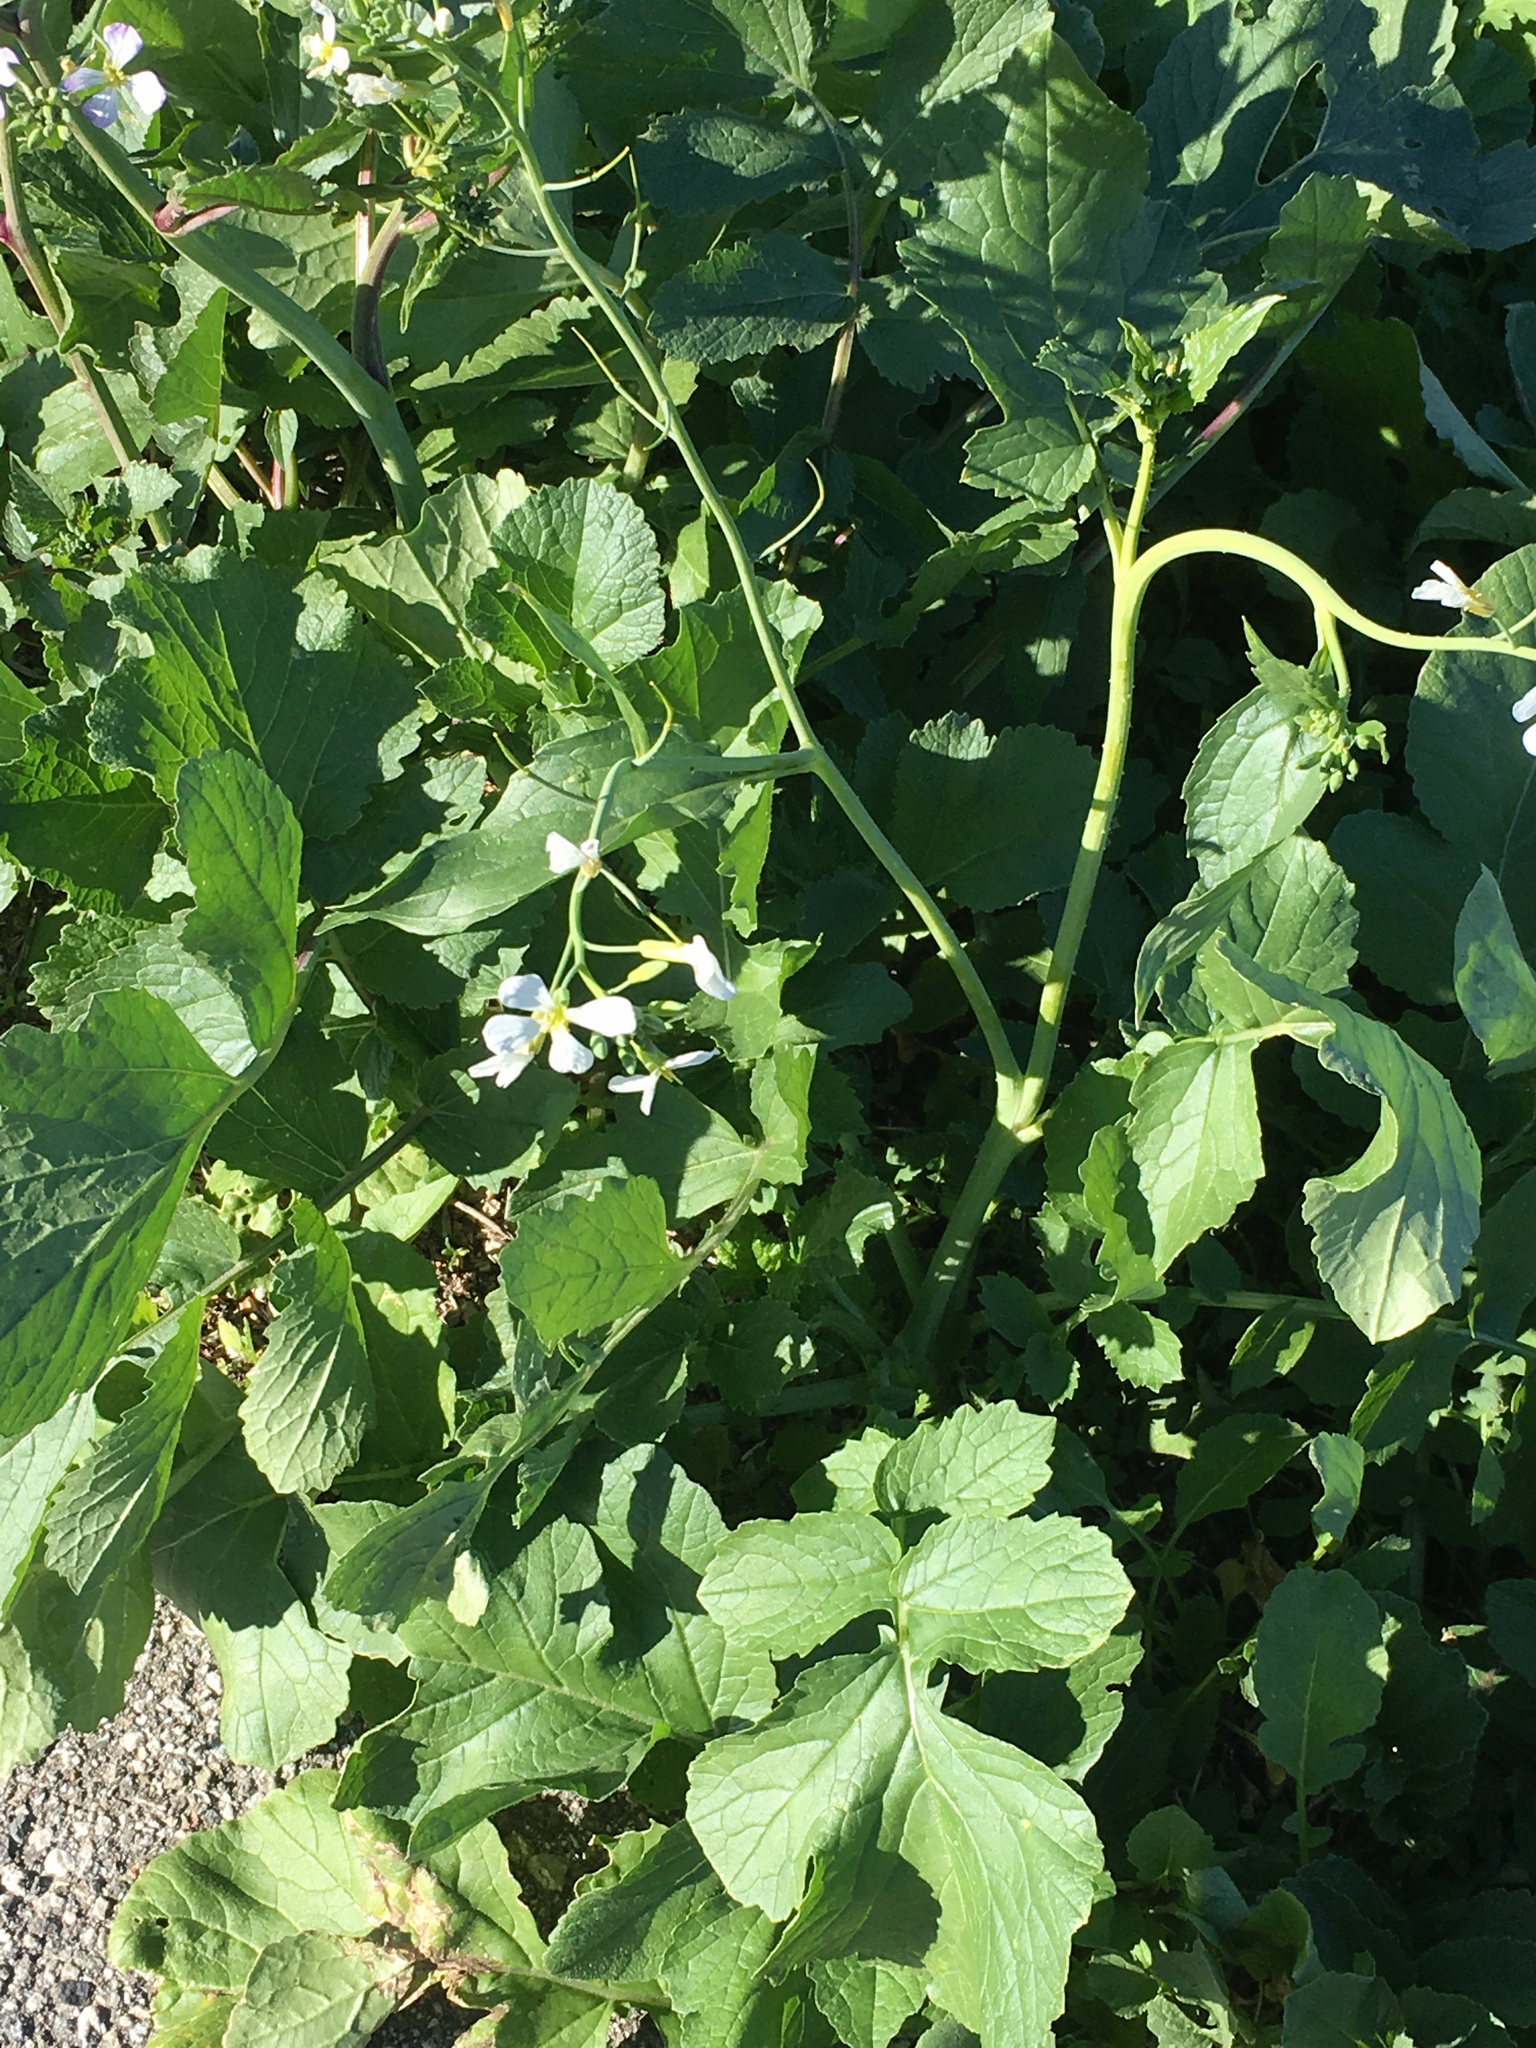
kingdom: Plantae
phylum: Tracheophyta
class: Magnoliopsida
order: Brassicales
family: Brassicaceae
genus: Raphanus
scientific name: Raphanus sativus
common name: Cultivated radish
